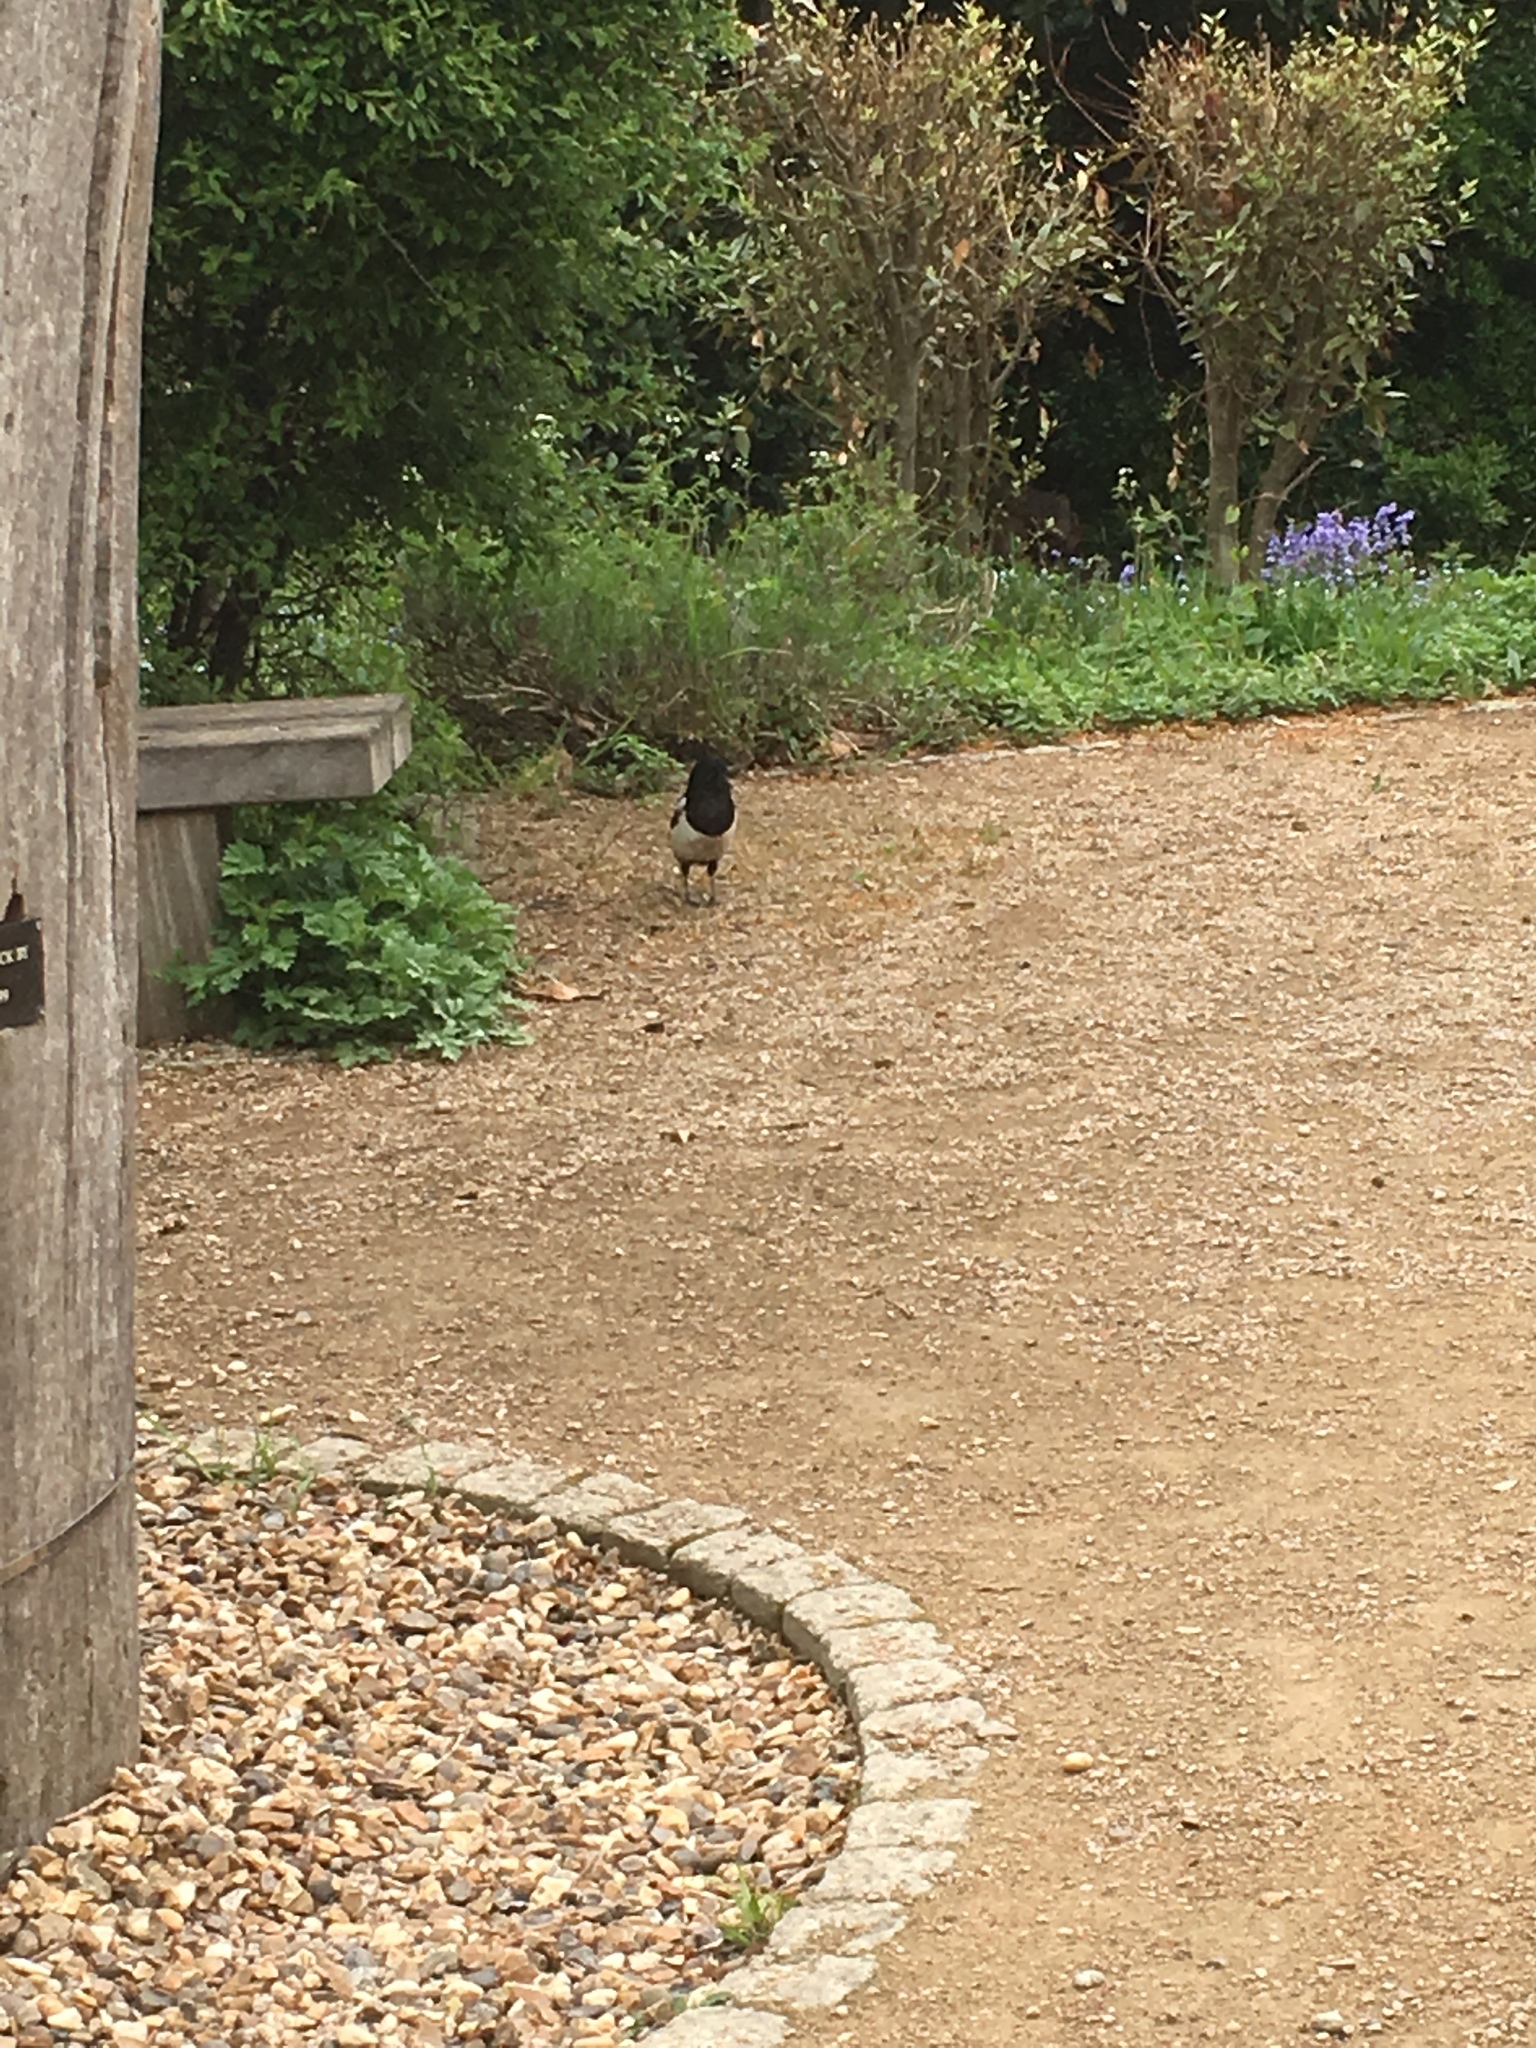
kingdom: Animalia
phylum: Chordata
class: Aves
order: Passeriformes
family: Corvidae
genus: Pica
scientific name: Pica pica
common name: Eurasian magpie
